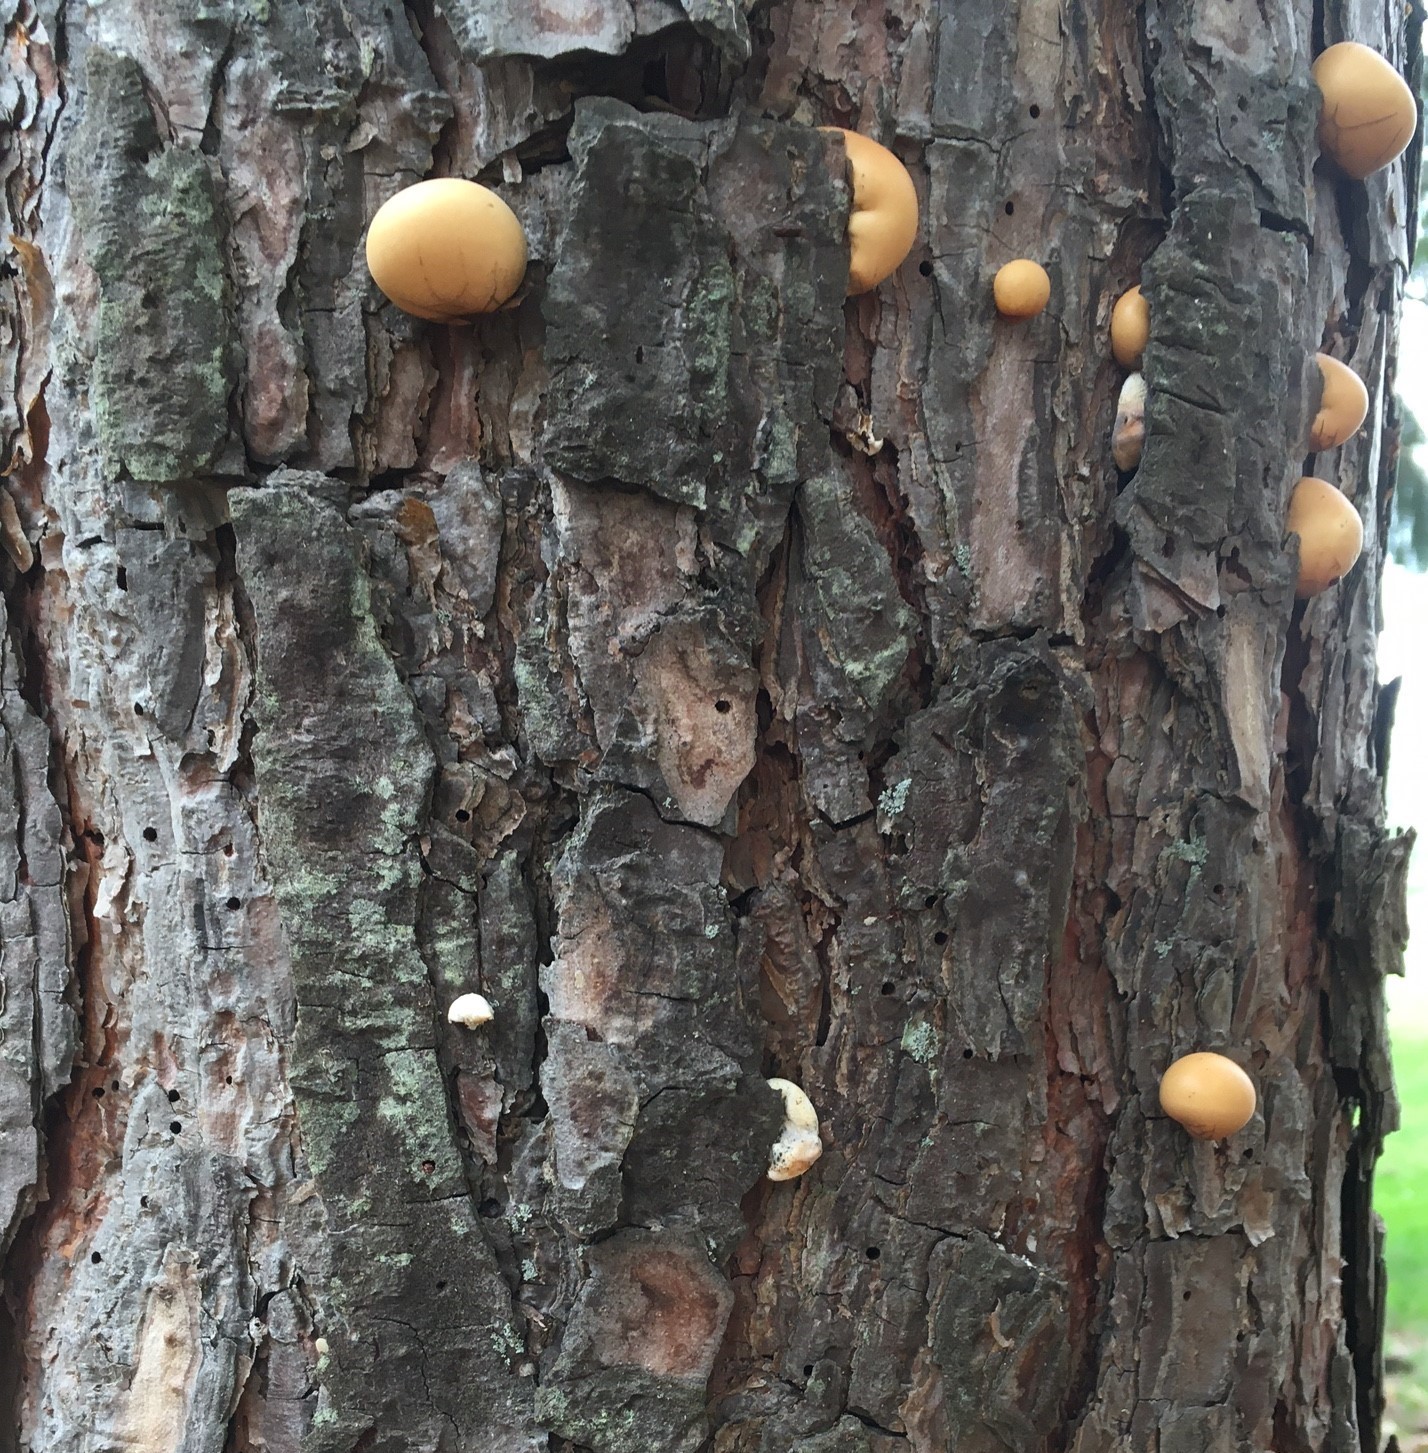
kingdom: Fungi
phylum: Basidiomycota
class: Agaricomycetes
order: Polyporales
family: Polyporaceae
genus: Cryptoporus
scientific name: Cryptoporus volvatus
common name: Veiled polypore
